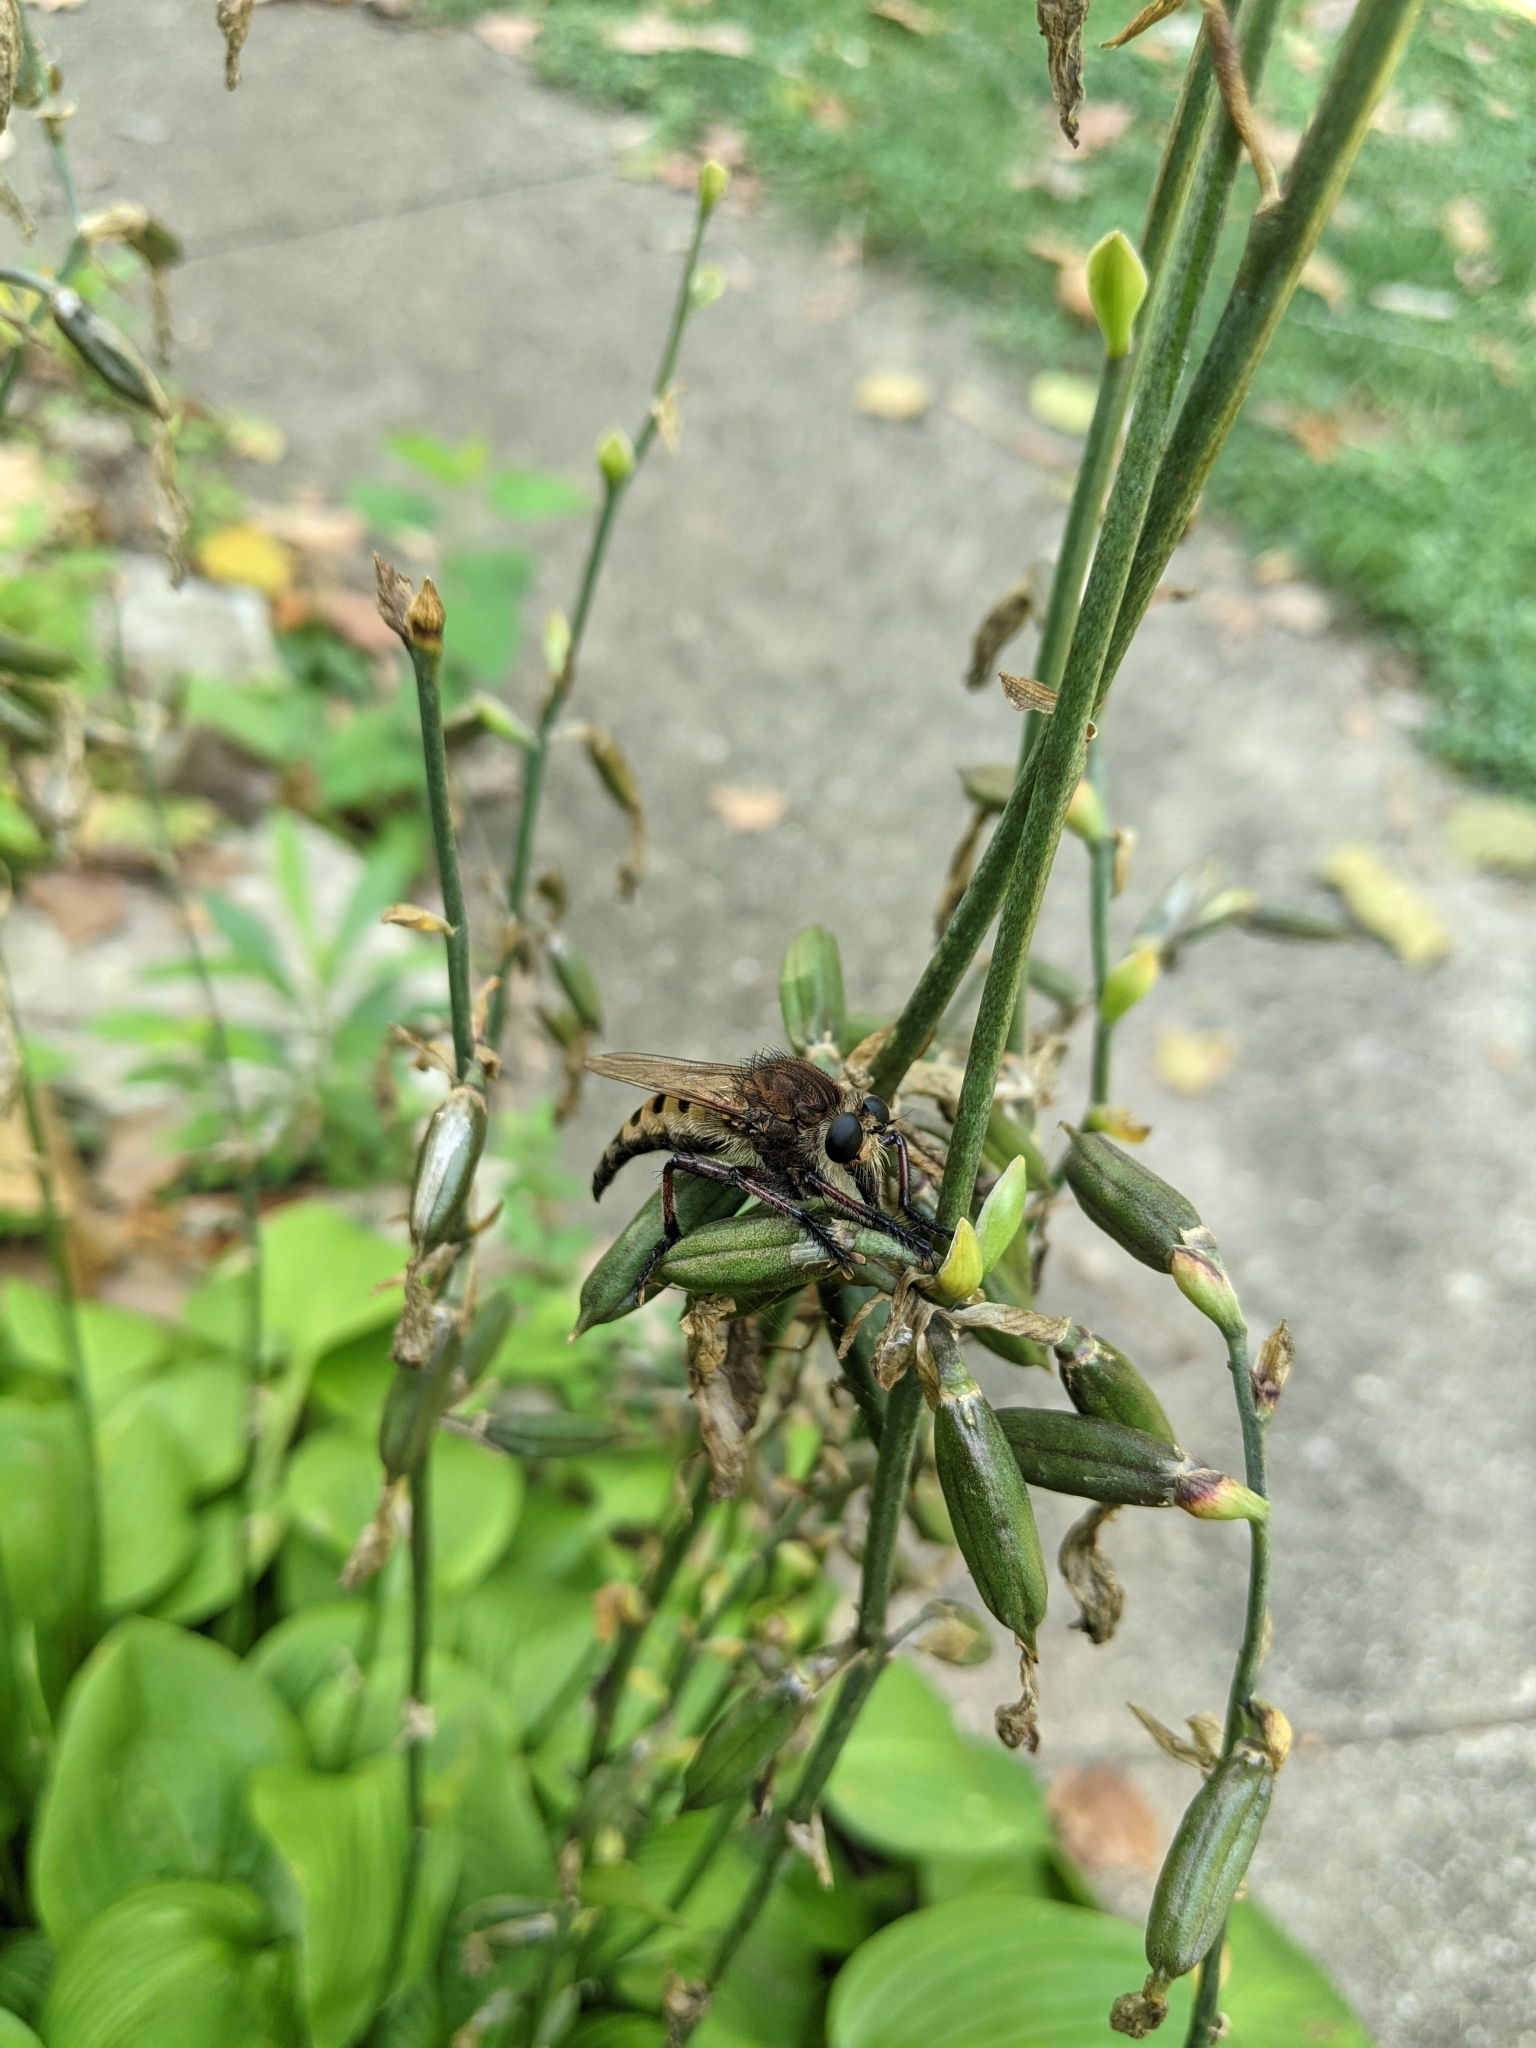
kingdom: Animalia
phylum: Arthropoda
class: Insecta
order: Diptera
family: Asilidae
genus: Promachus
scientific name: Promachus hinei
